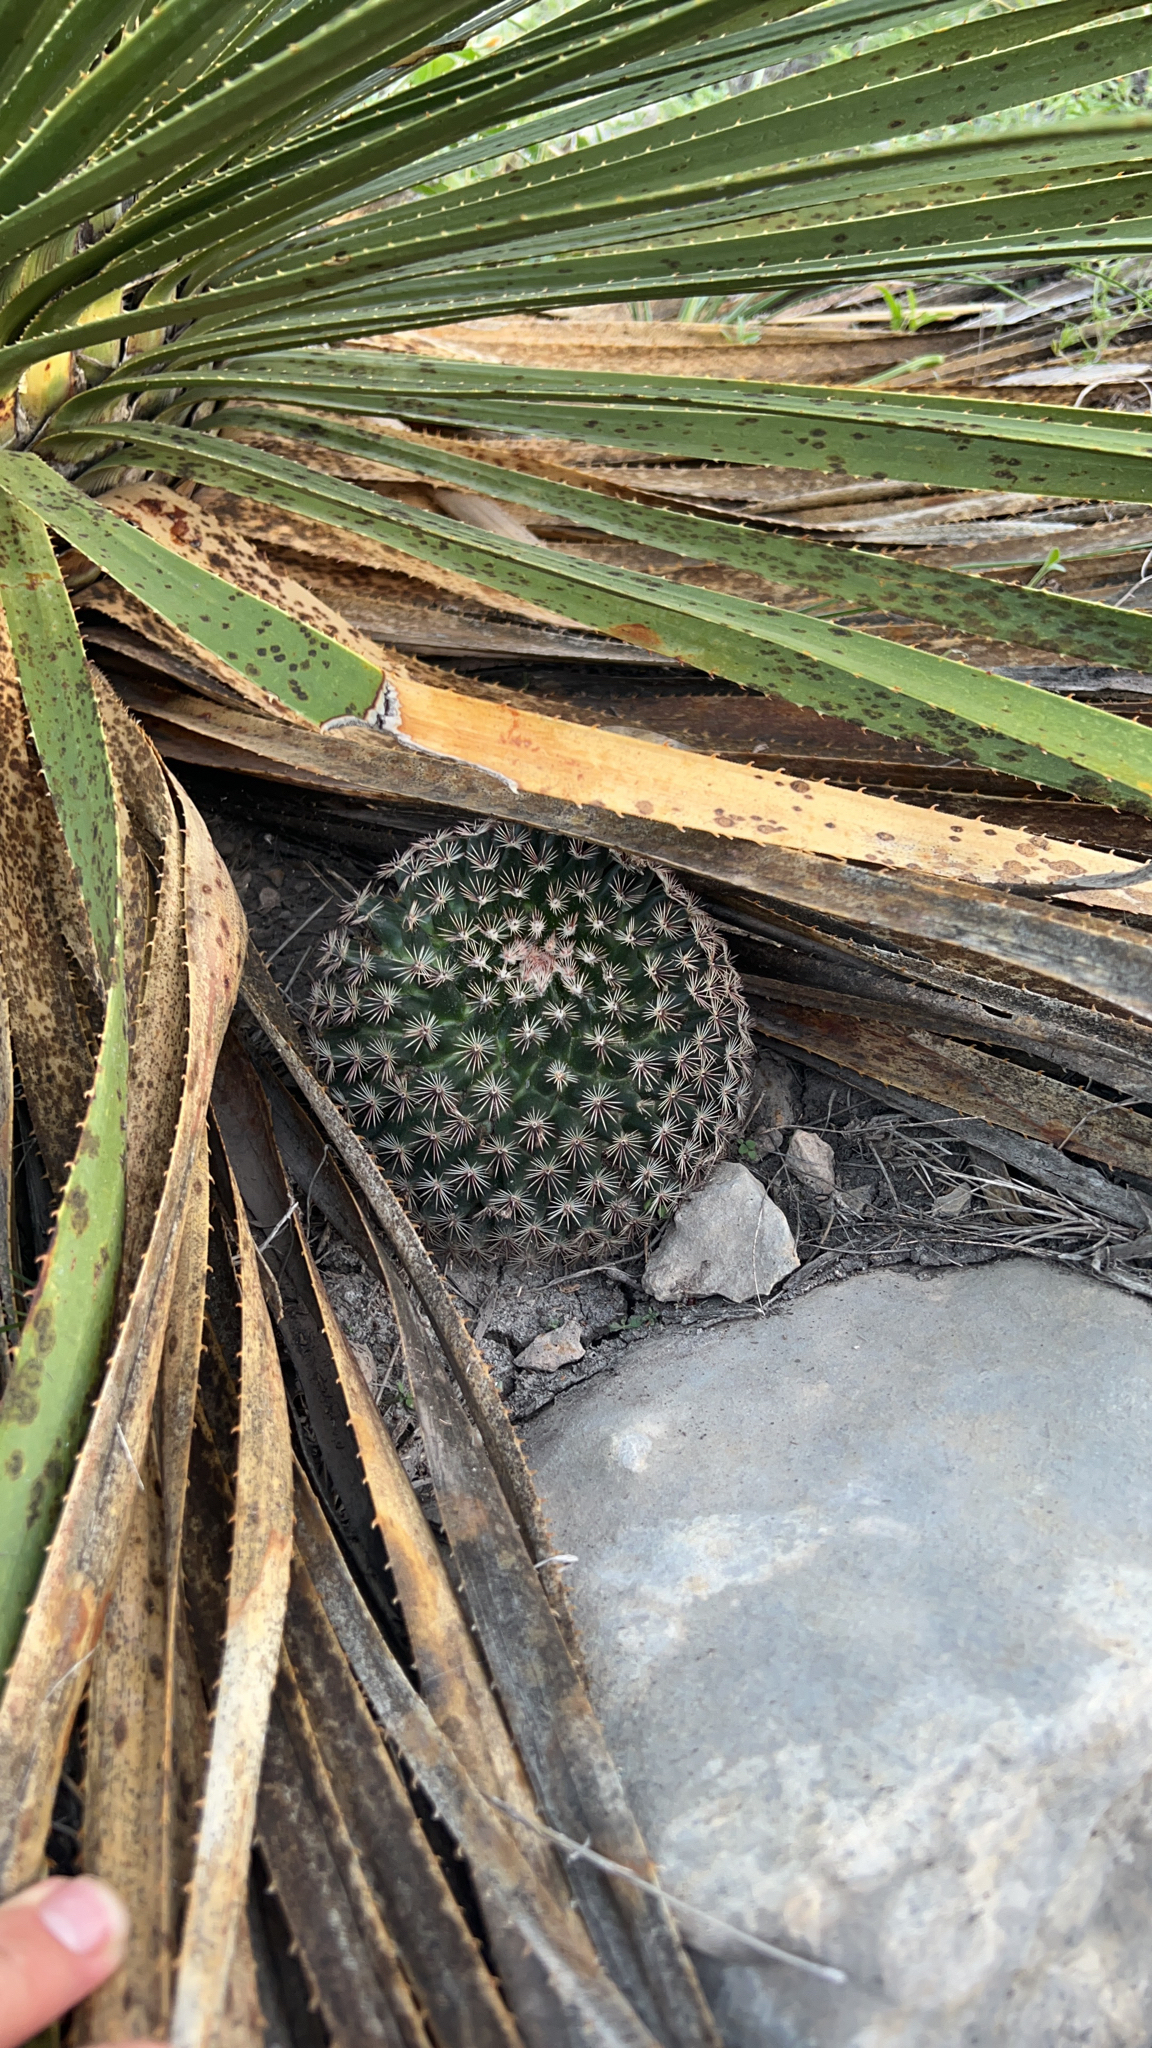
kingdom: Plantae
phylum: Tracheophyta
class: Magnoliopsida
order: Caryophyllales
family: Cactaceae
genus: Mammillaria
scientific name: Mammillaria heyderi
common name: Little nipple cactus
